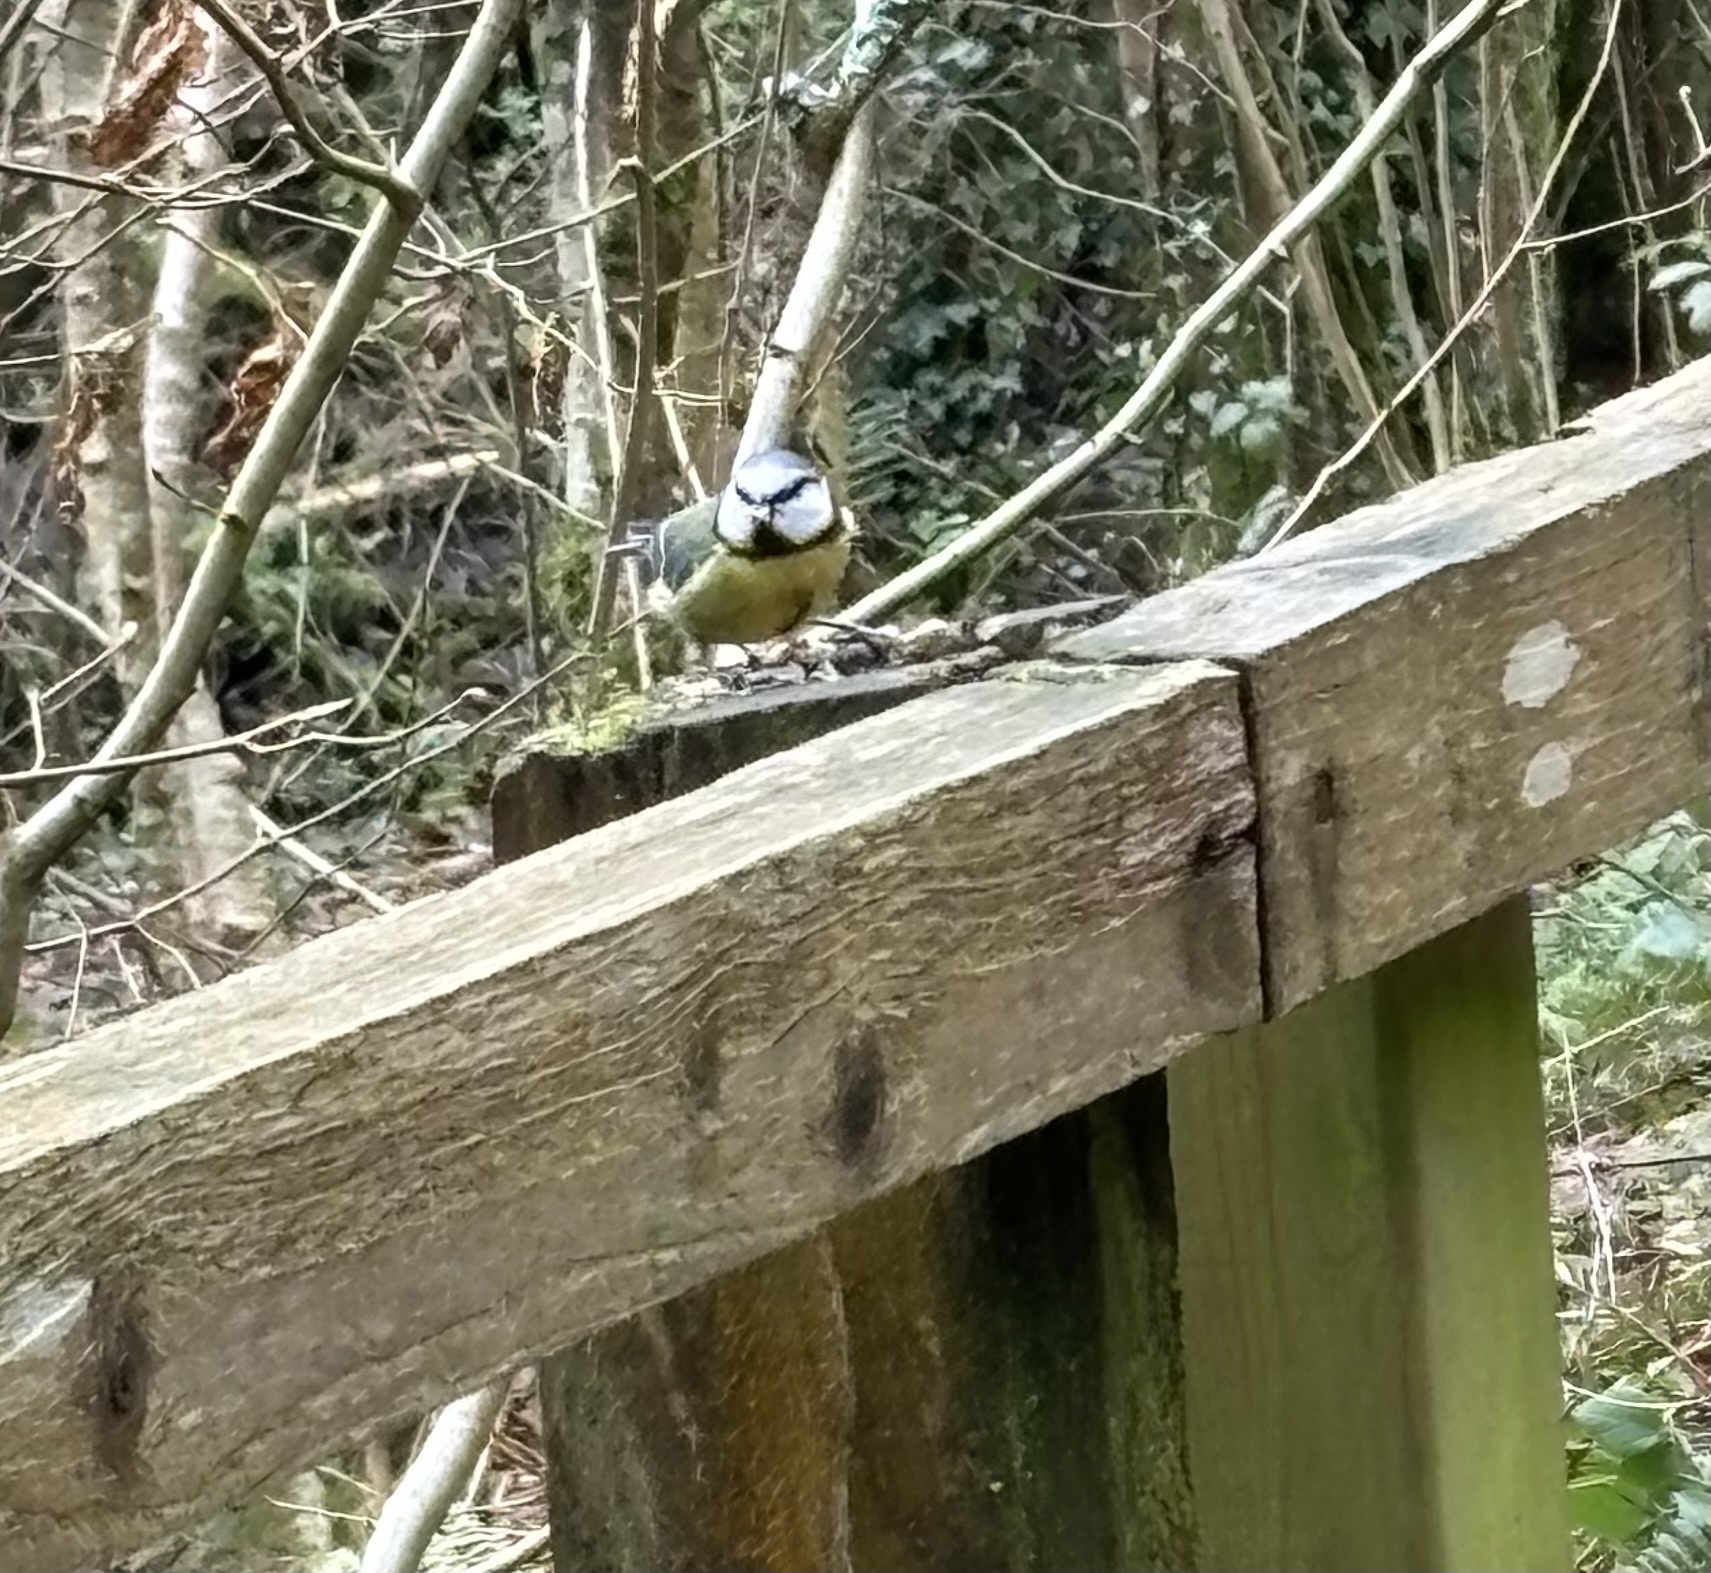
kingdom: Animalia
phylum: Chordata
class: Aves
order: Passeriformes
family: Paridae
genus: Cyanistes
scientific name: Cyanistes caeruleus
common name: Eurasian blue tit
